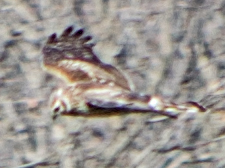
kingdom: Animalia
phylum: Chordata
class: Aves
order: Accipitriformes
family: Accipitridae
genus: Circus
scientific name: Circus cyaneus
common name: Hen harrier
